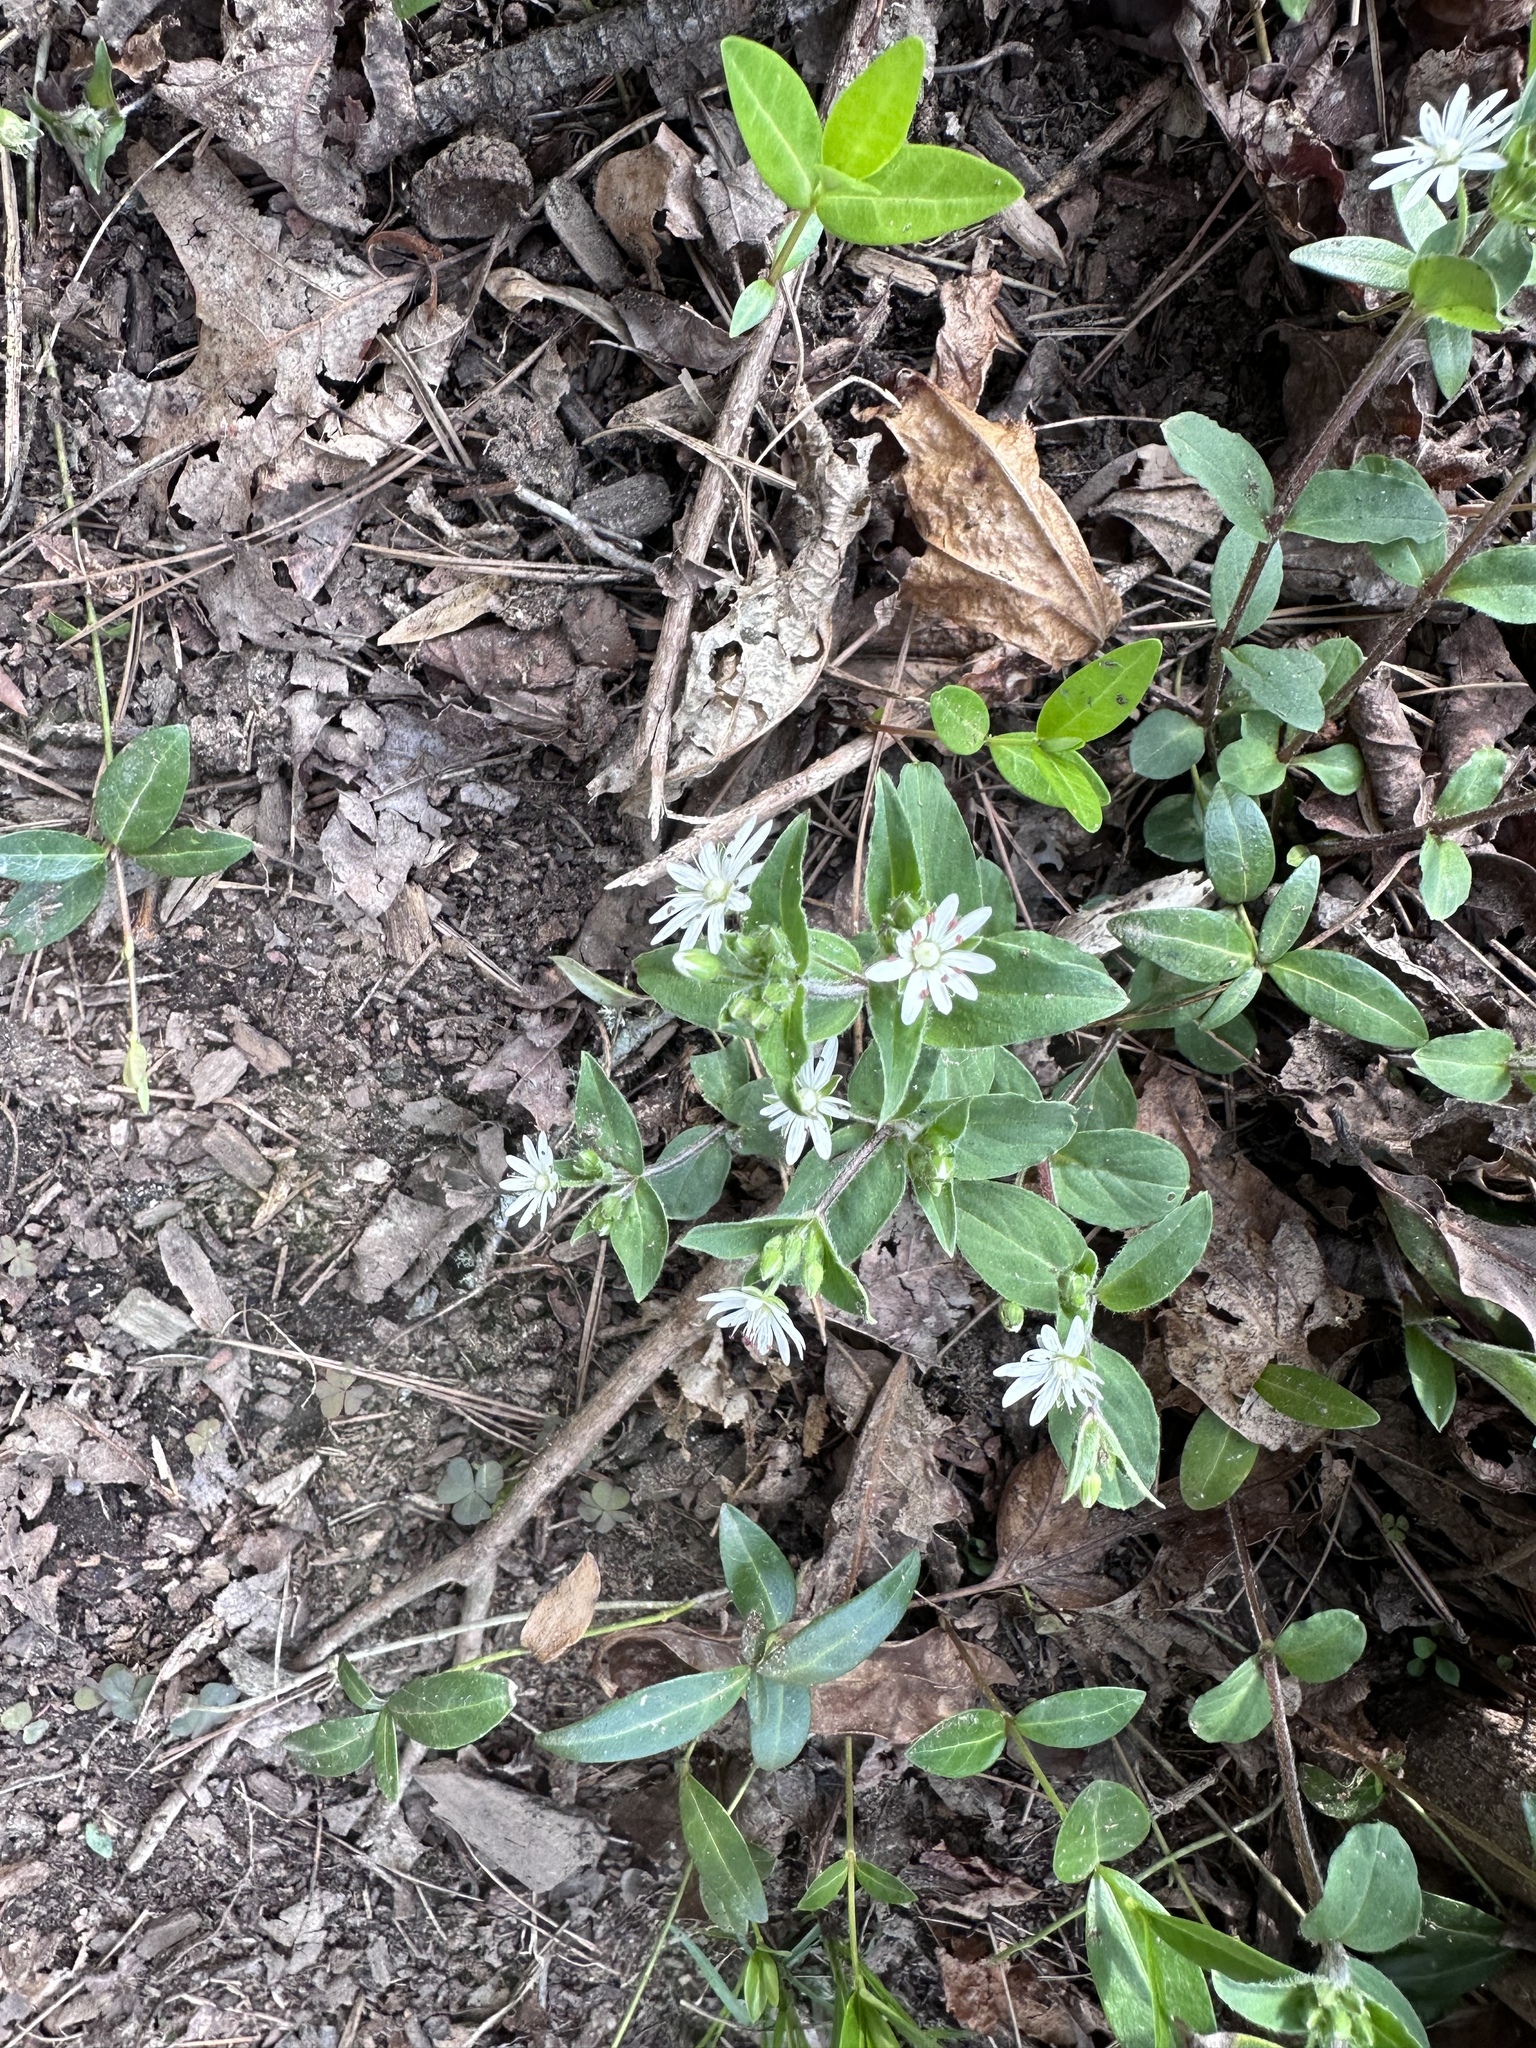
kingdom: Plantae
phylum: Tracheophyta
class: Magnoliopsida
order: Caryophyllales
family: Caryophyllaceae
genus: Stellaria
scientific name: Stellaria pubera
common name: Star chickweed
